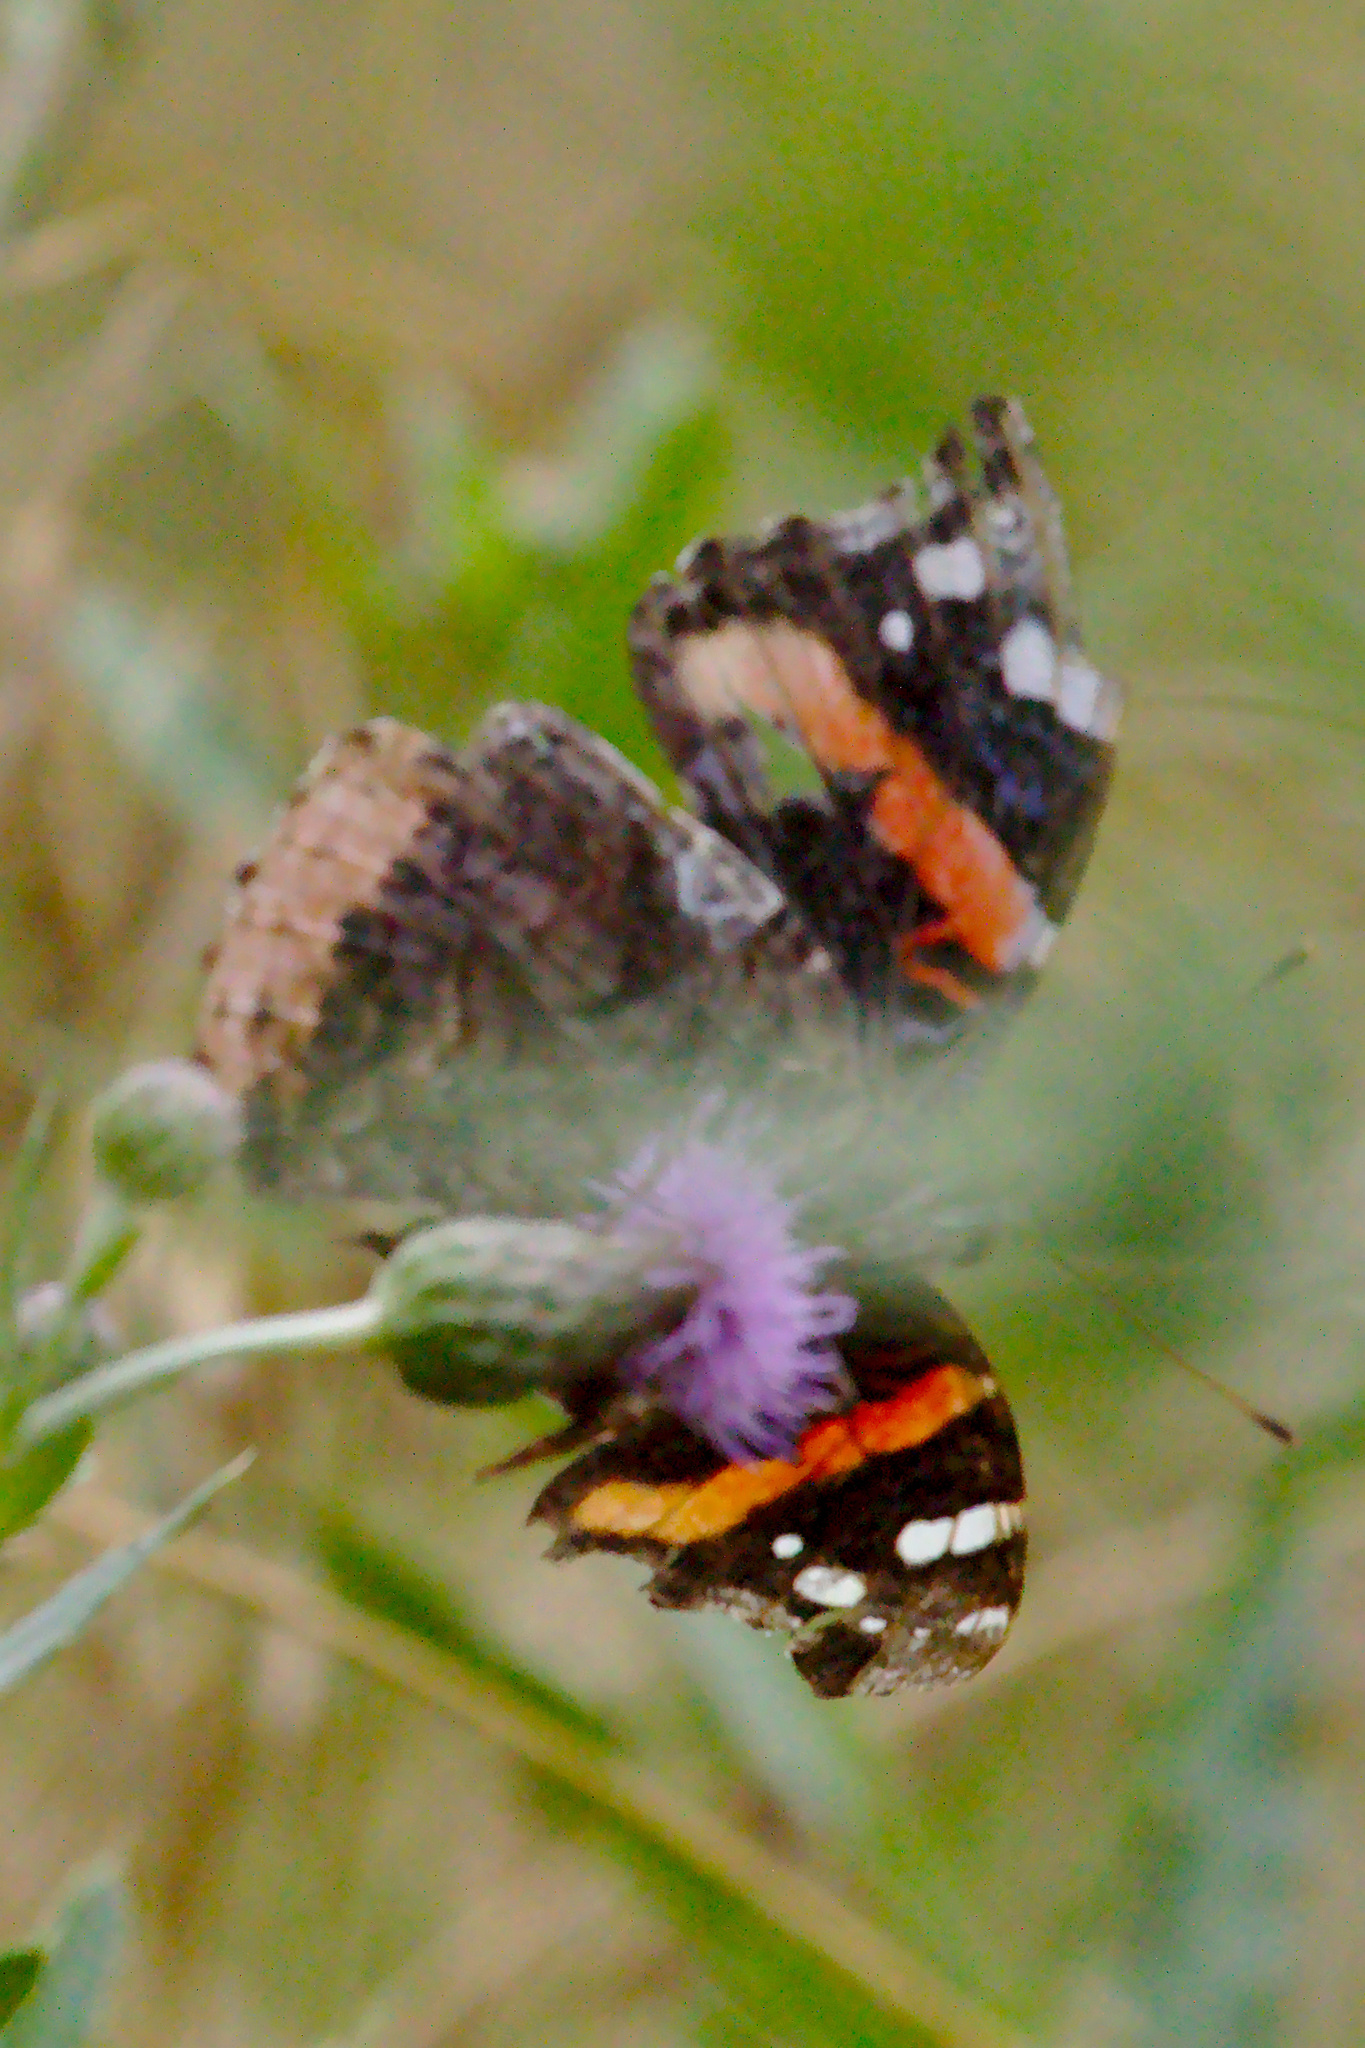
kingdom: Animalia
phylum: Arthropoda
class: Insecta
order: Lepidoptera
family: Nymphalidae
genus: Vanessa
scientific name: Vanessa atalanta
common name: Red admiral
